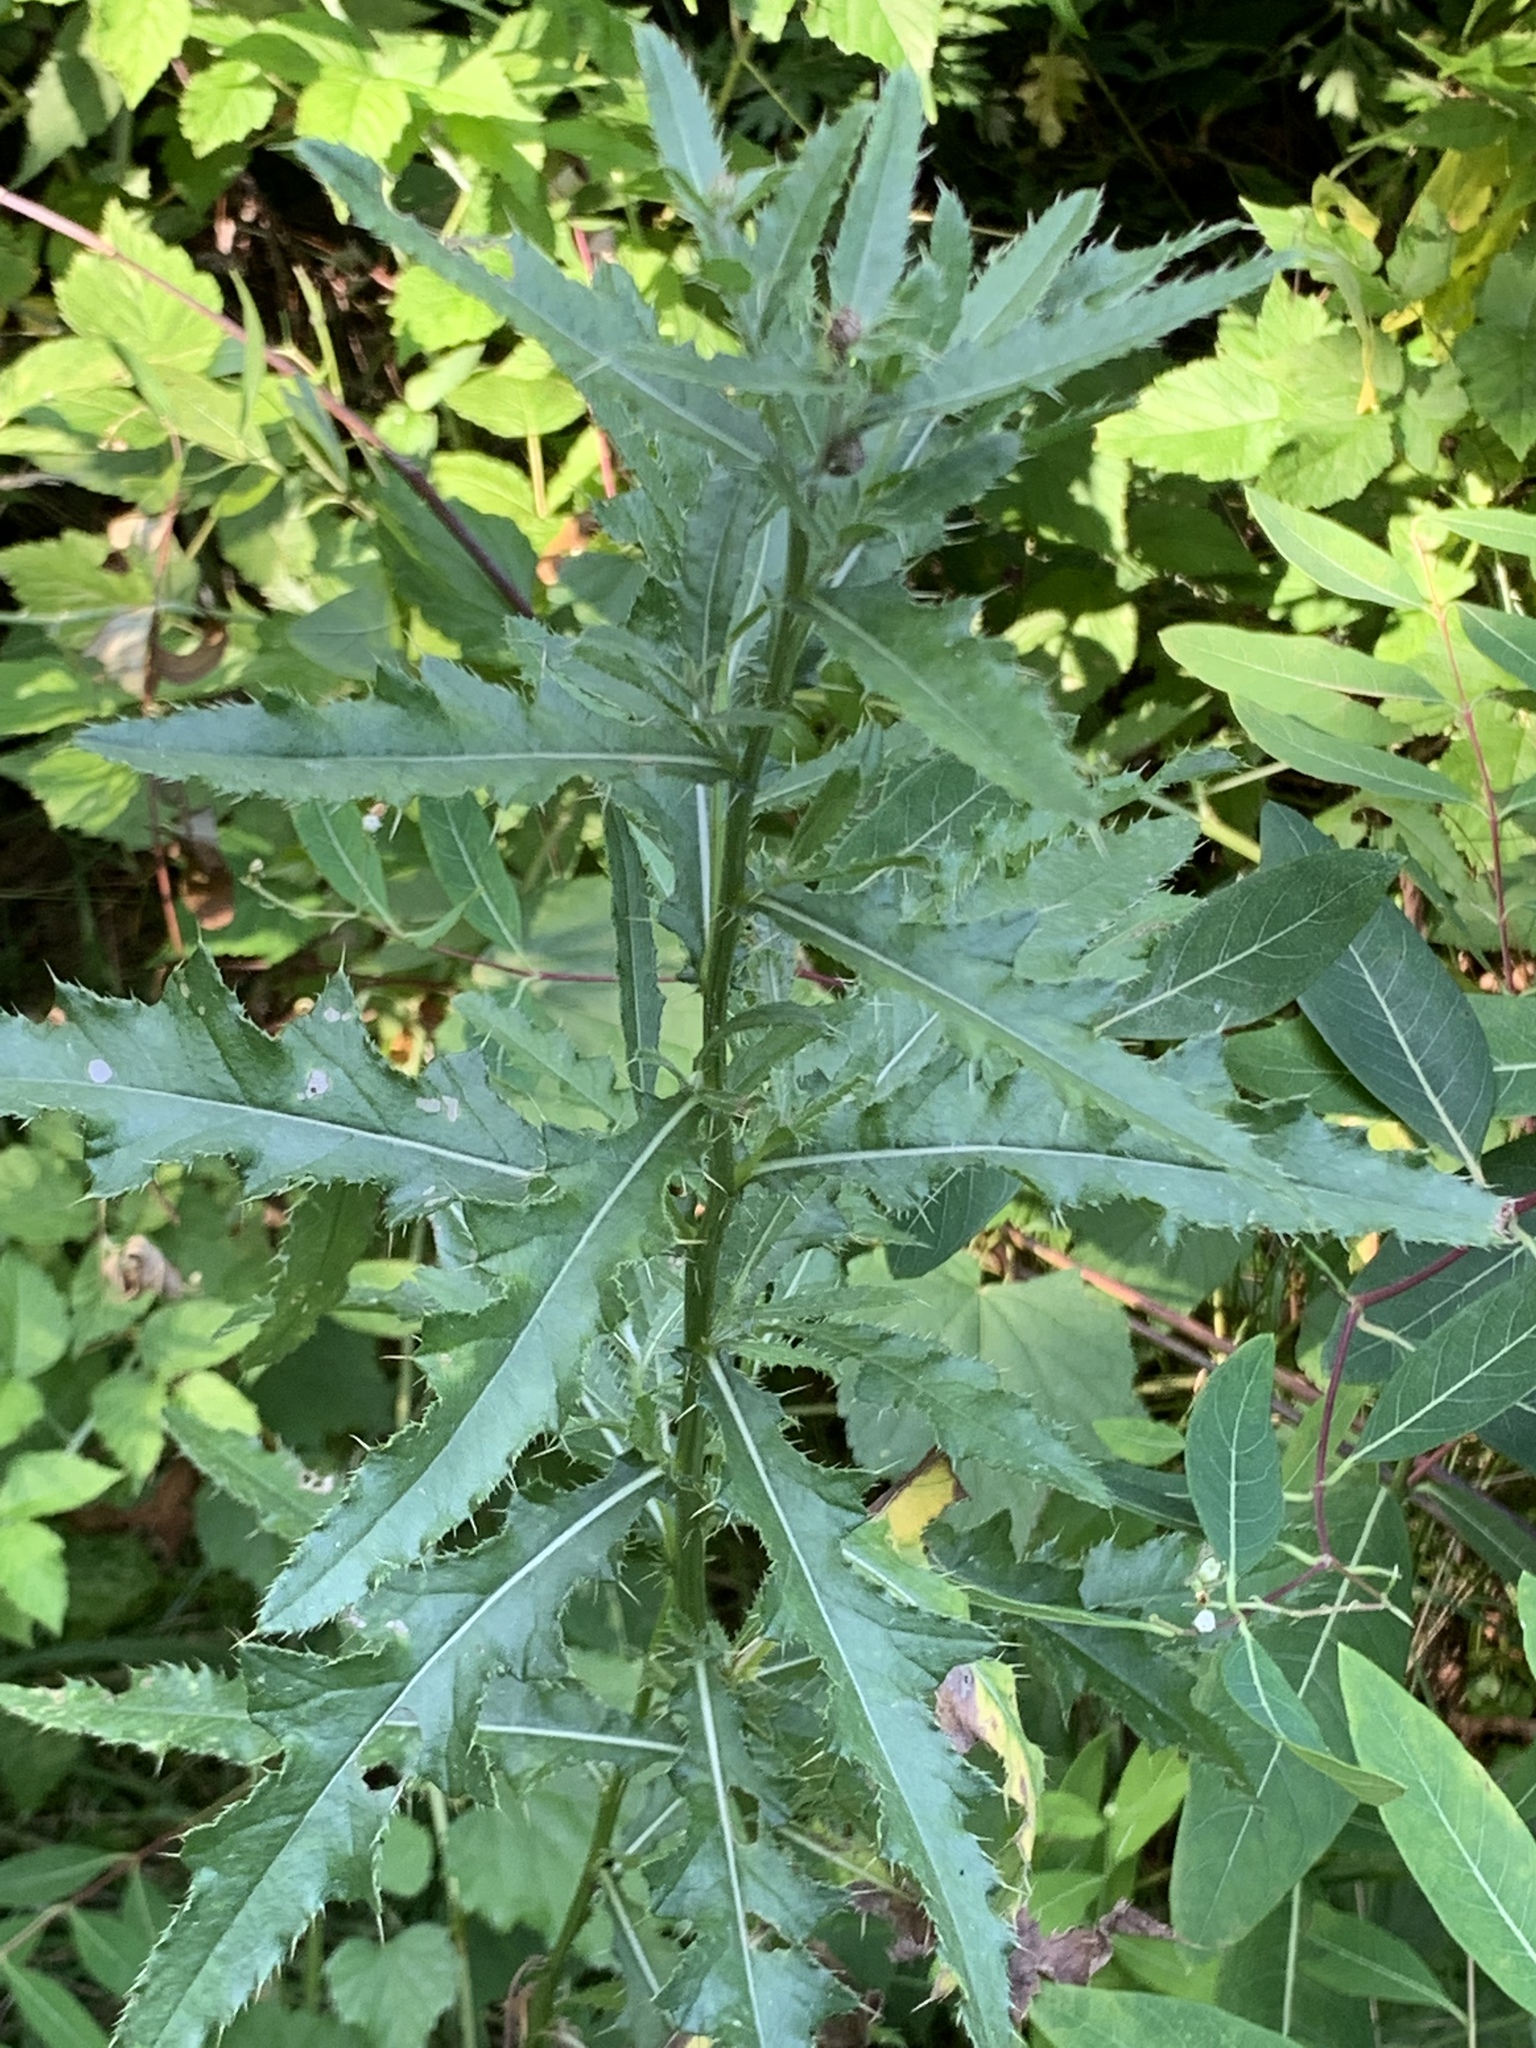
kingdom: Plantae
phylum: Tracheophyta
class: Magnoliopsida
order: Asterales
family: Asteraceae
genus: Cirsium
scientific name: Cirsium arvense
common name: Creeping thistle
